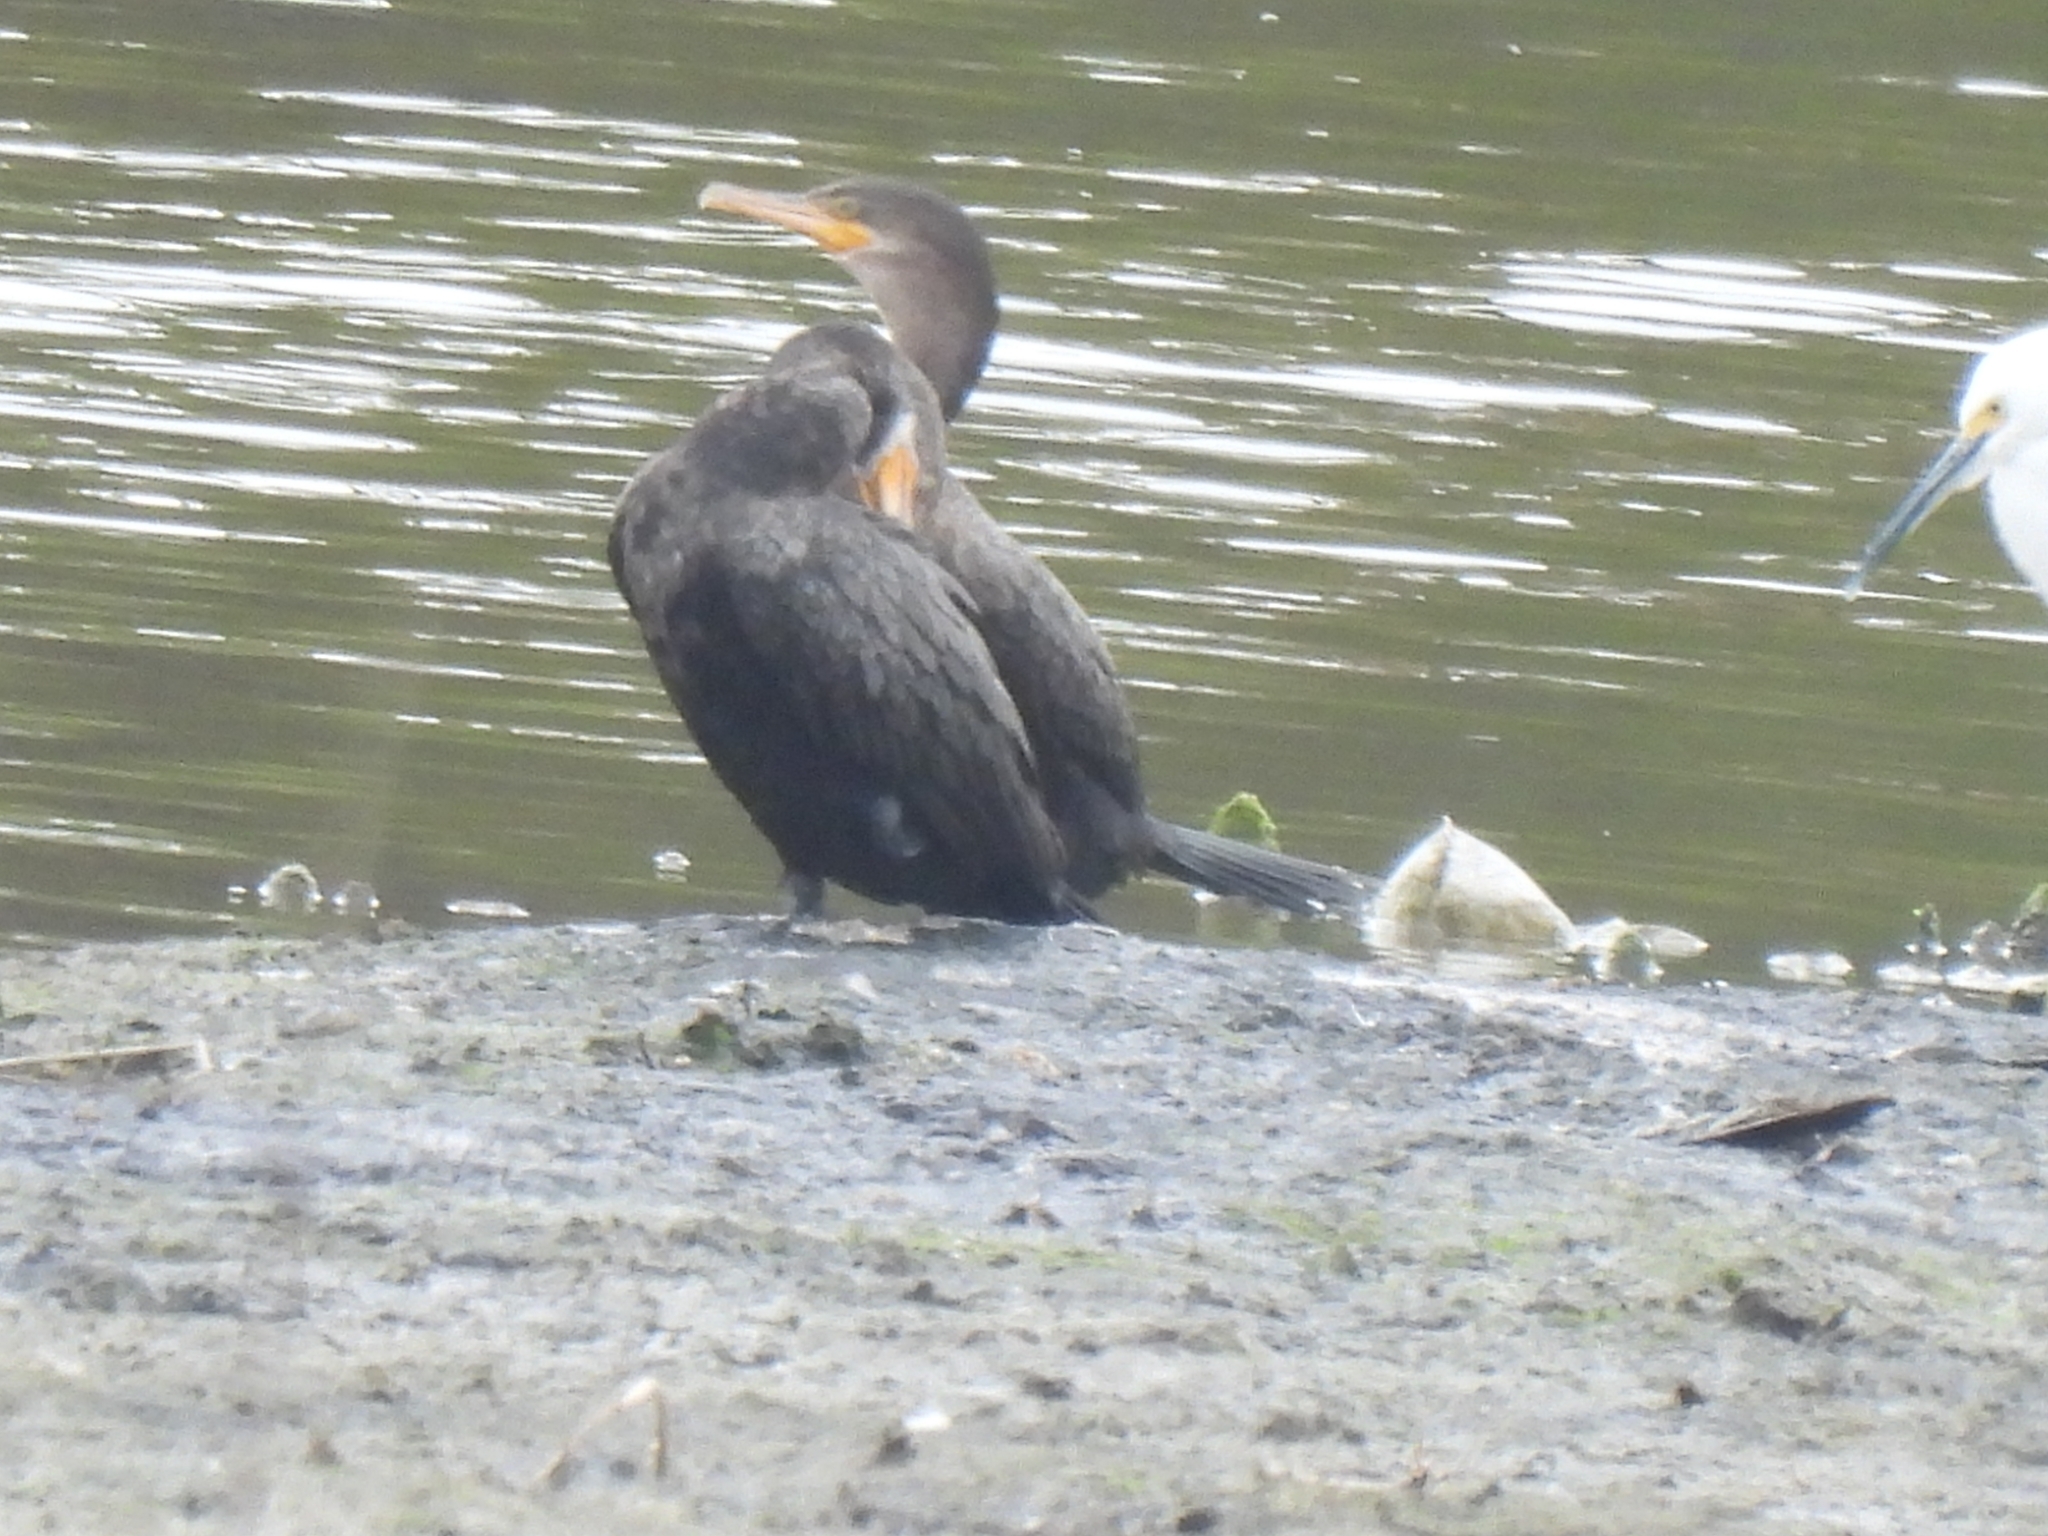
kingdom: Animalia
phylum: Chordata
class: Aves
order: Suliformes
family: Phalacrocoracidae
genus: Phalacrocorax
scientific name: Phalacrocorax brasilianus
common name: Neotropic cormorant
